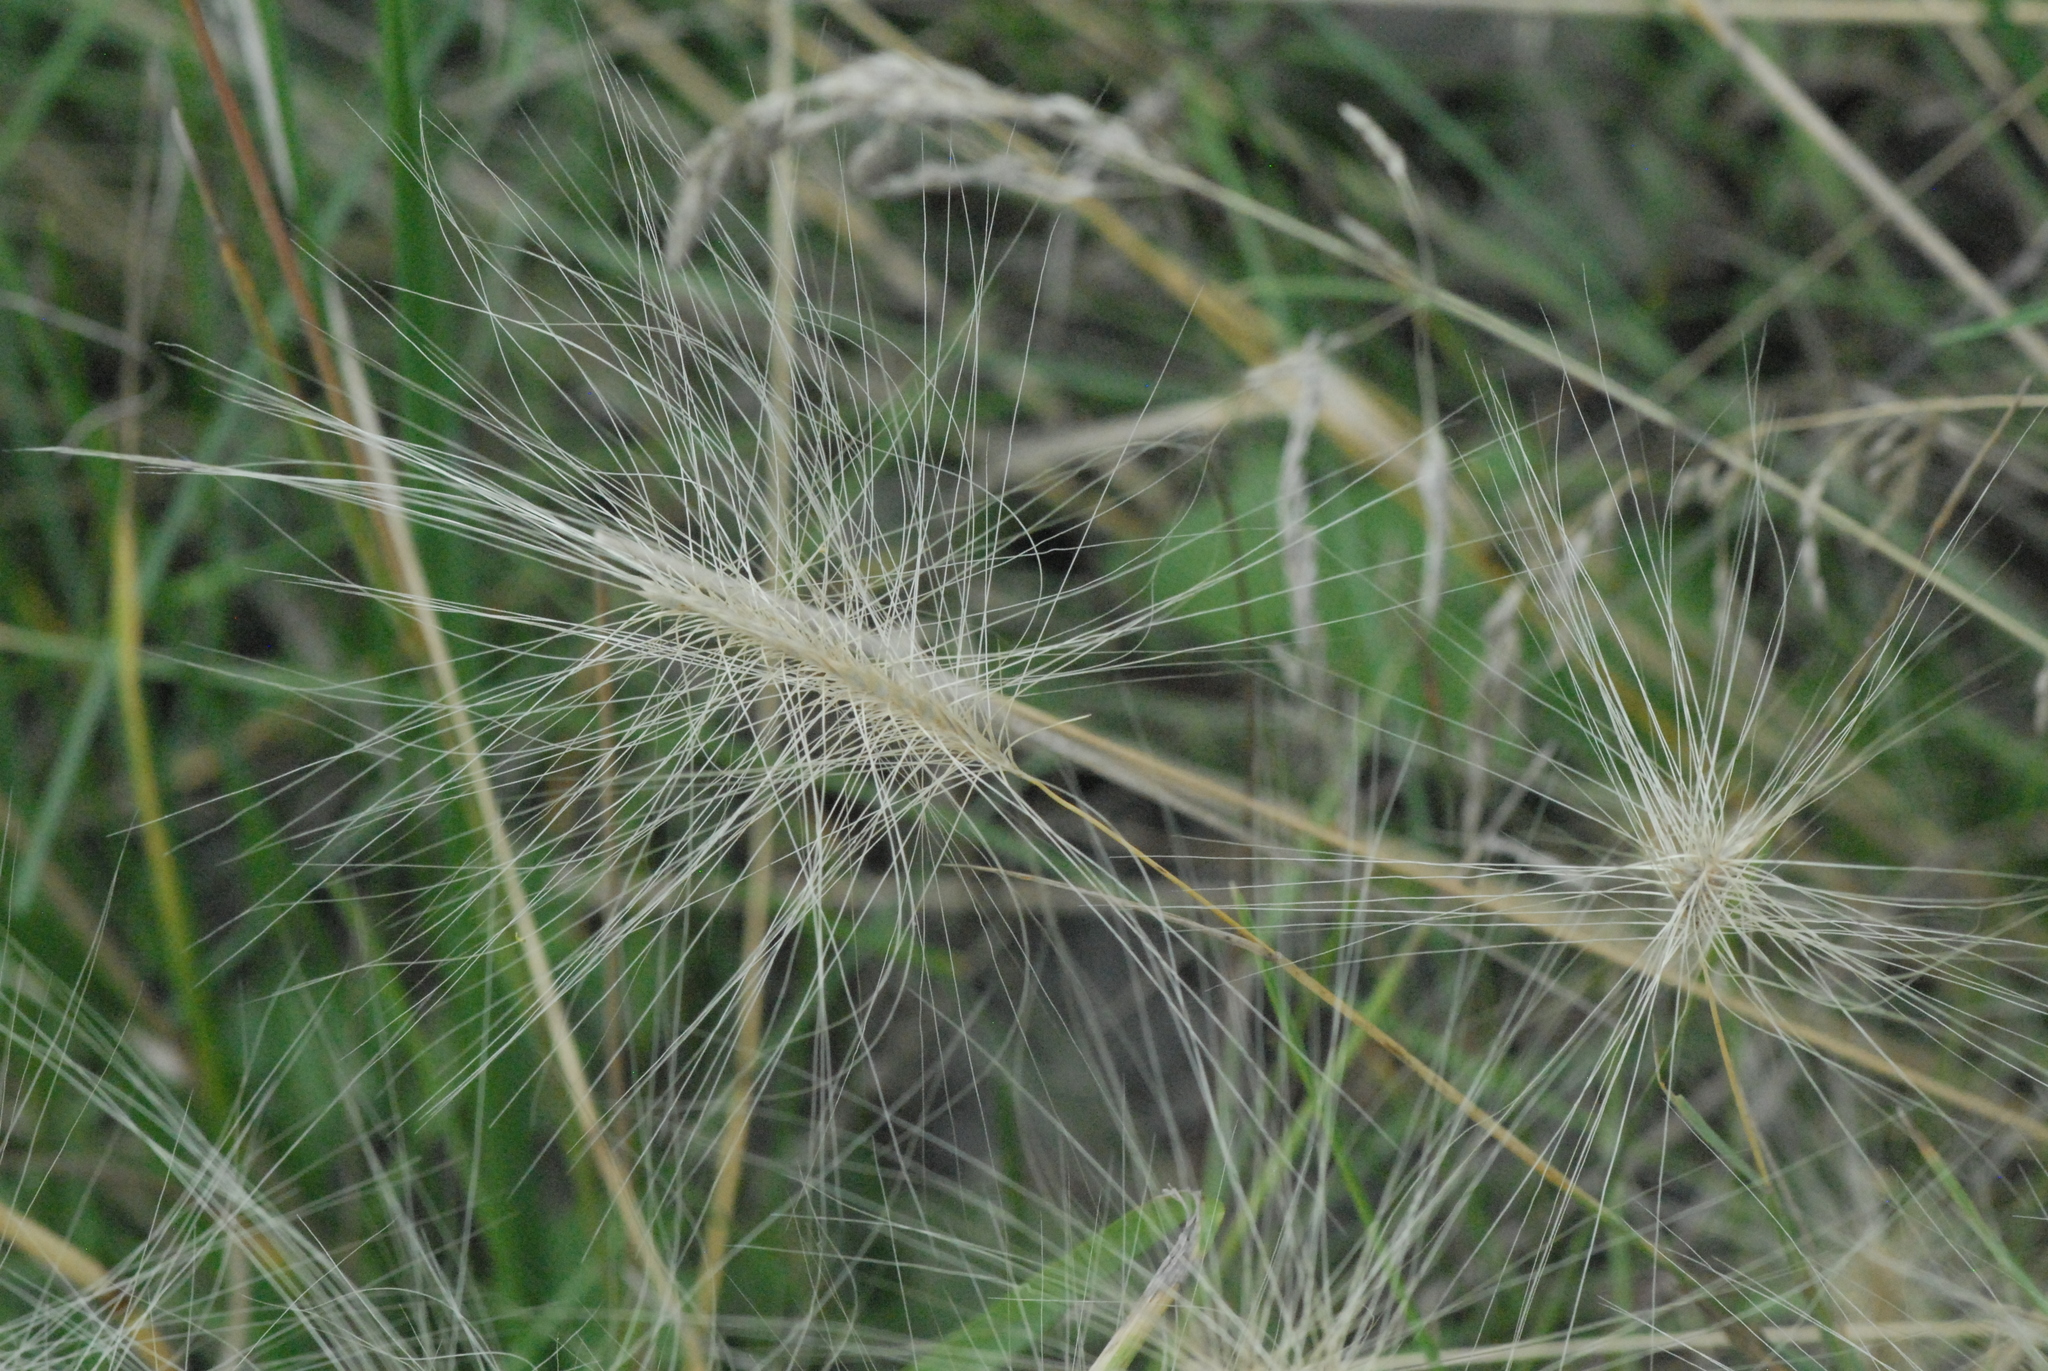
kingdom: Plantae
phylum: Tracheophyta
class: Liliopsida
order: Poales
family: Poaceae
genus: Hordeum
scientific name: Hordeum jubatum
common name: Foxtail barley
